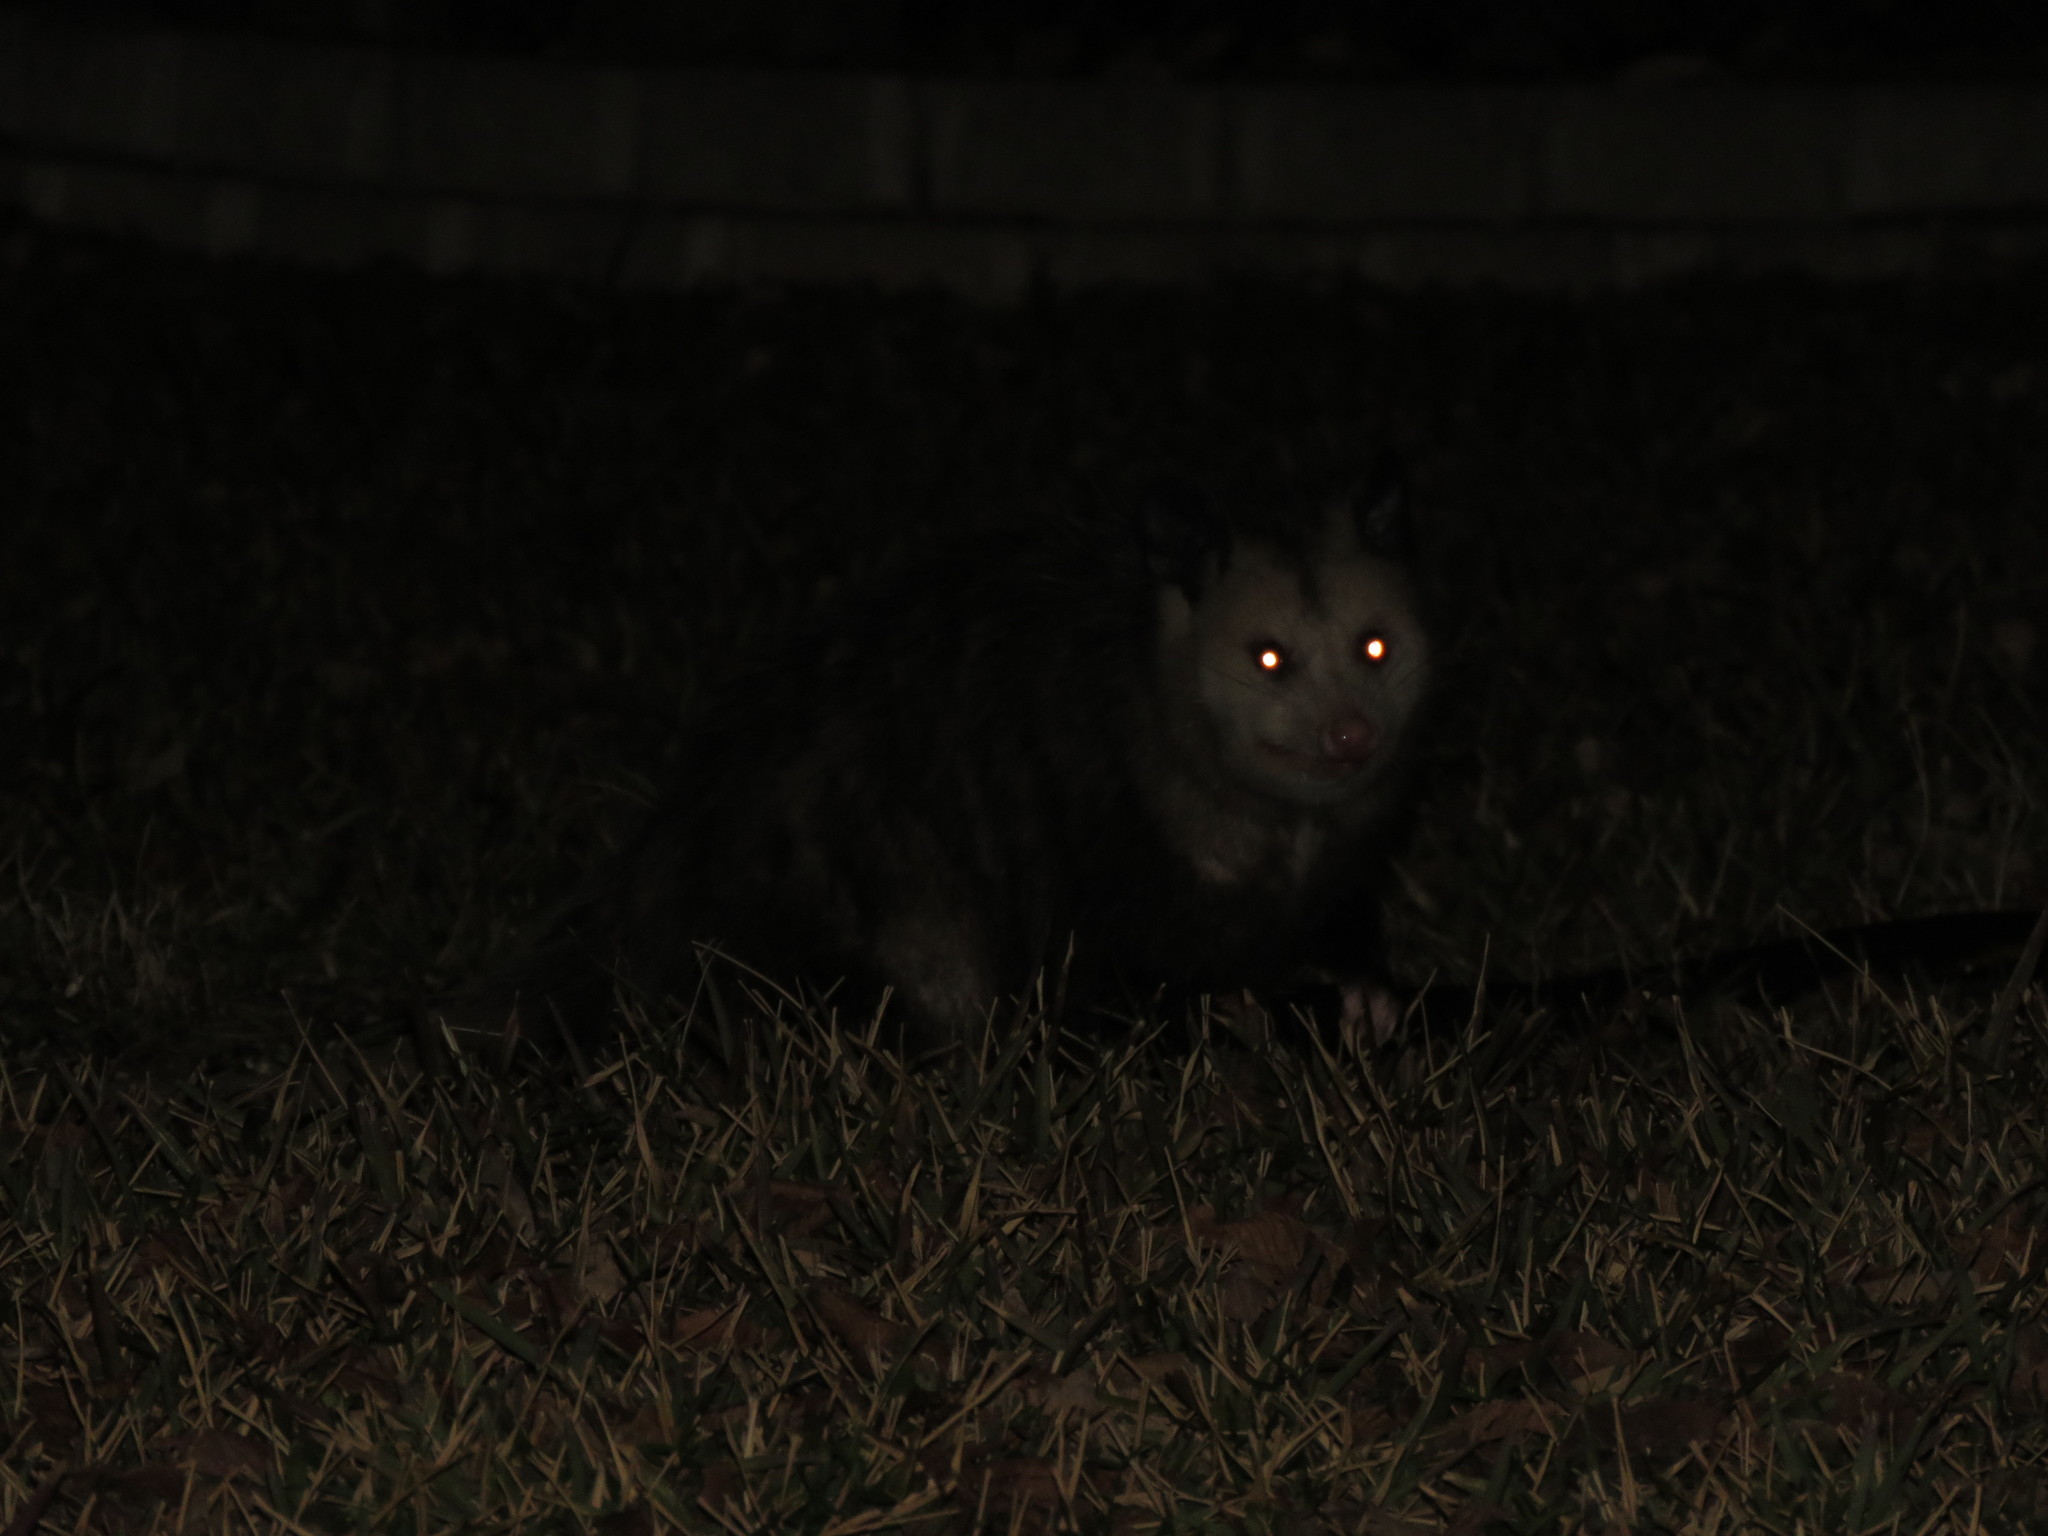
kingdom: Animalia
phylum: Chordata
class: Mammalia
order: Didelphimorphia
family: Didelphidae
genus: Didelphis
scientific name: Didelphis virginiana
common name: Virginia opossum
